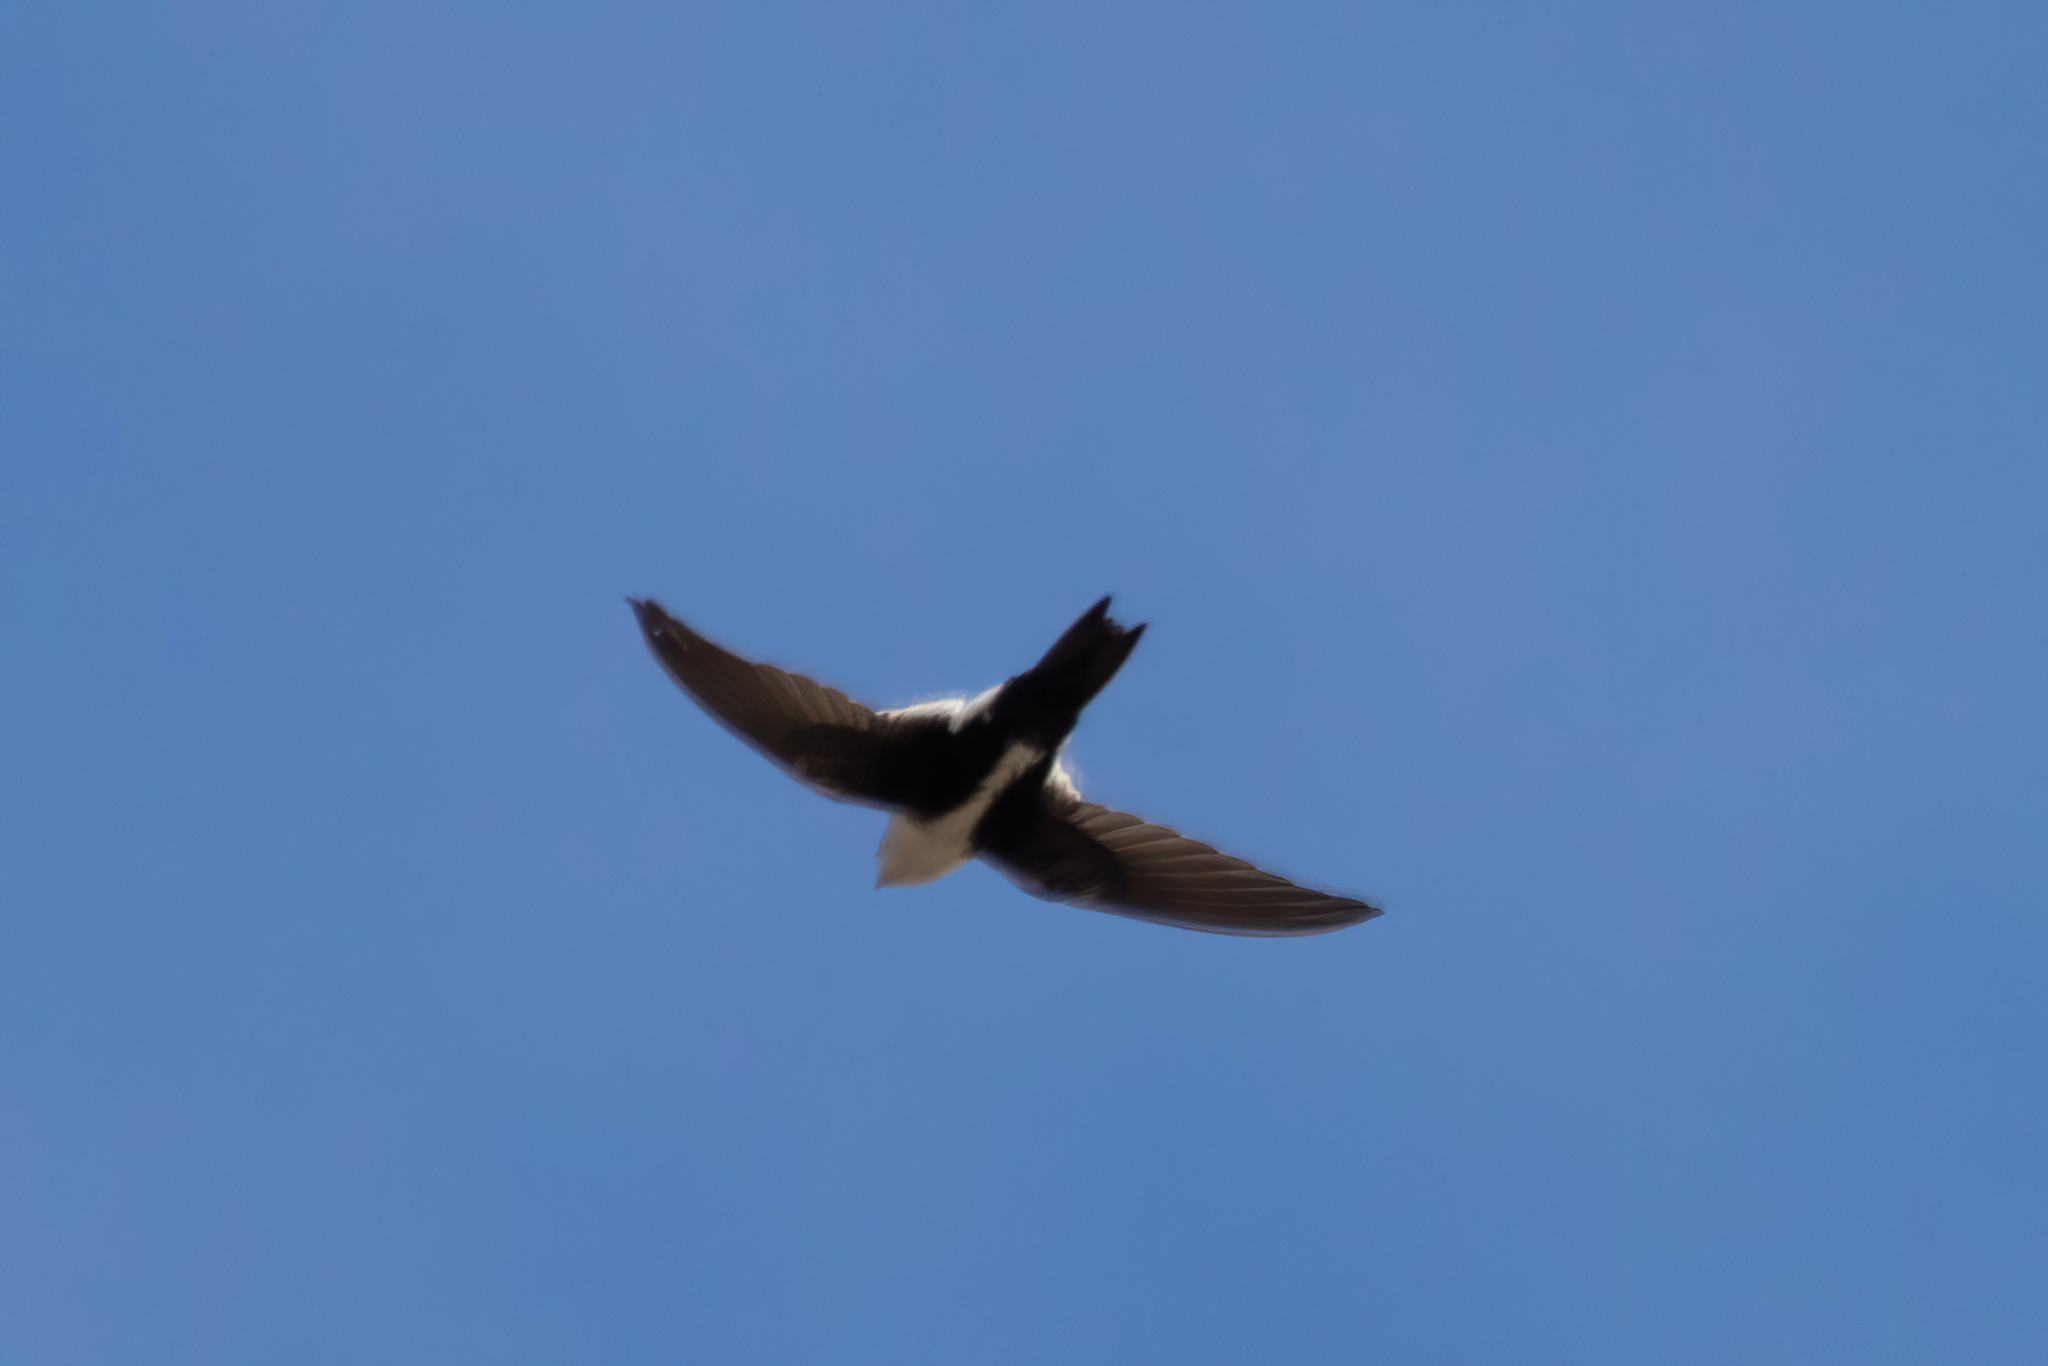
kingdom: Animalia
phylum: Chordata
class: Aves
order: Apodiformes
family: Apodidae
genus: Aeronautes
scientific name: Aeronautes saxatalis
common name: White-throated swift
